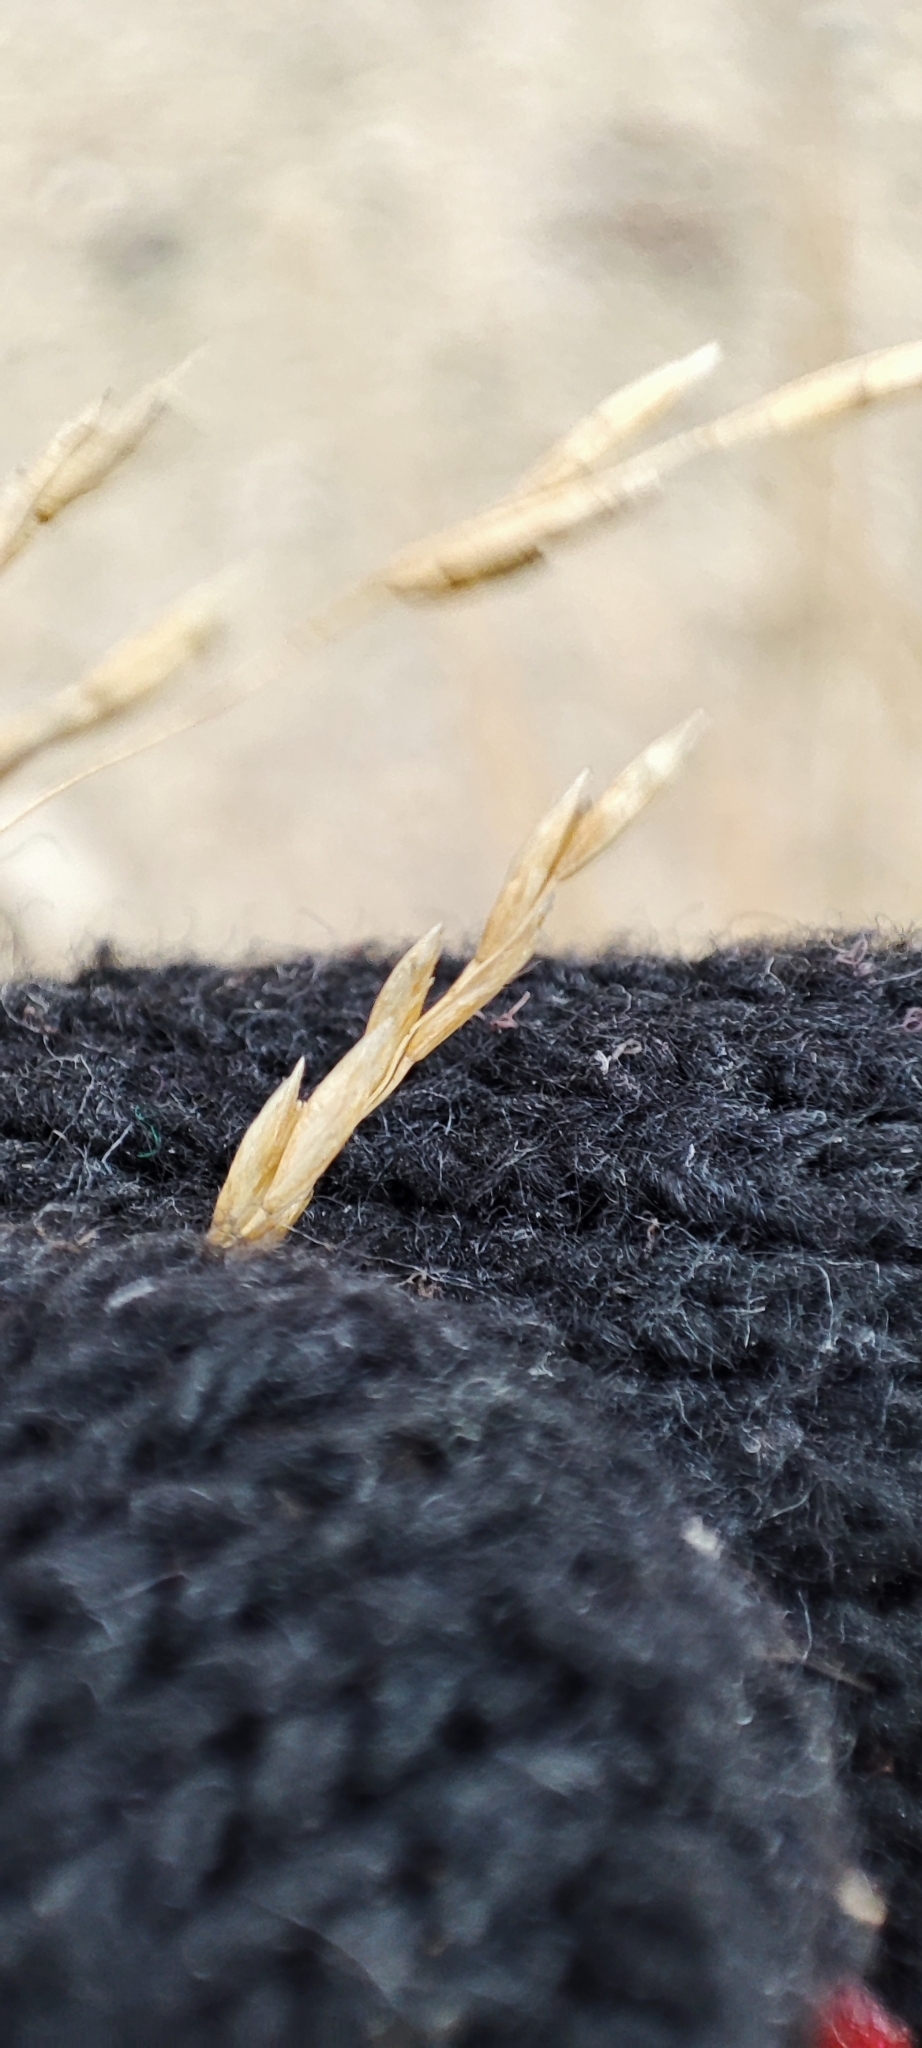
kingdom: Plantae
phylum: Tracheophyta
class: Liliopsida
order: Poales
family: Poaceae
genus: Deschampsia
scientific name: Deschampsia cespitosa
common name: Tufted hair-grass
